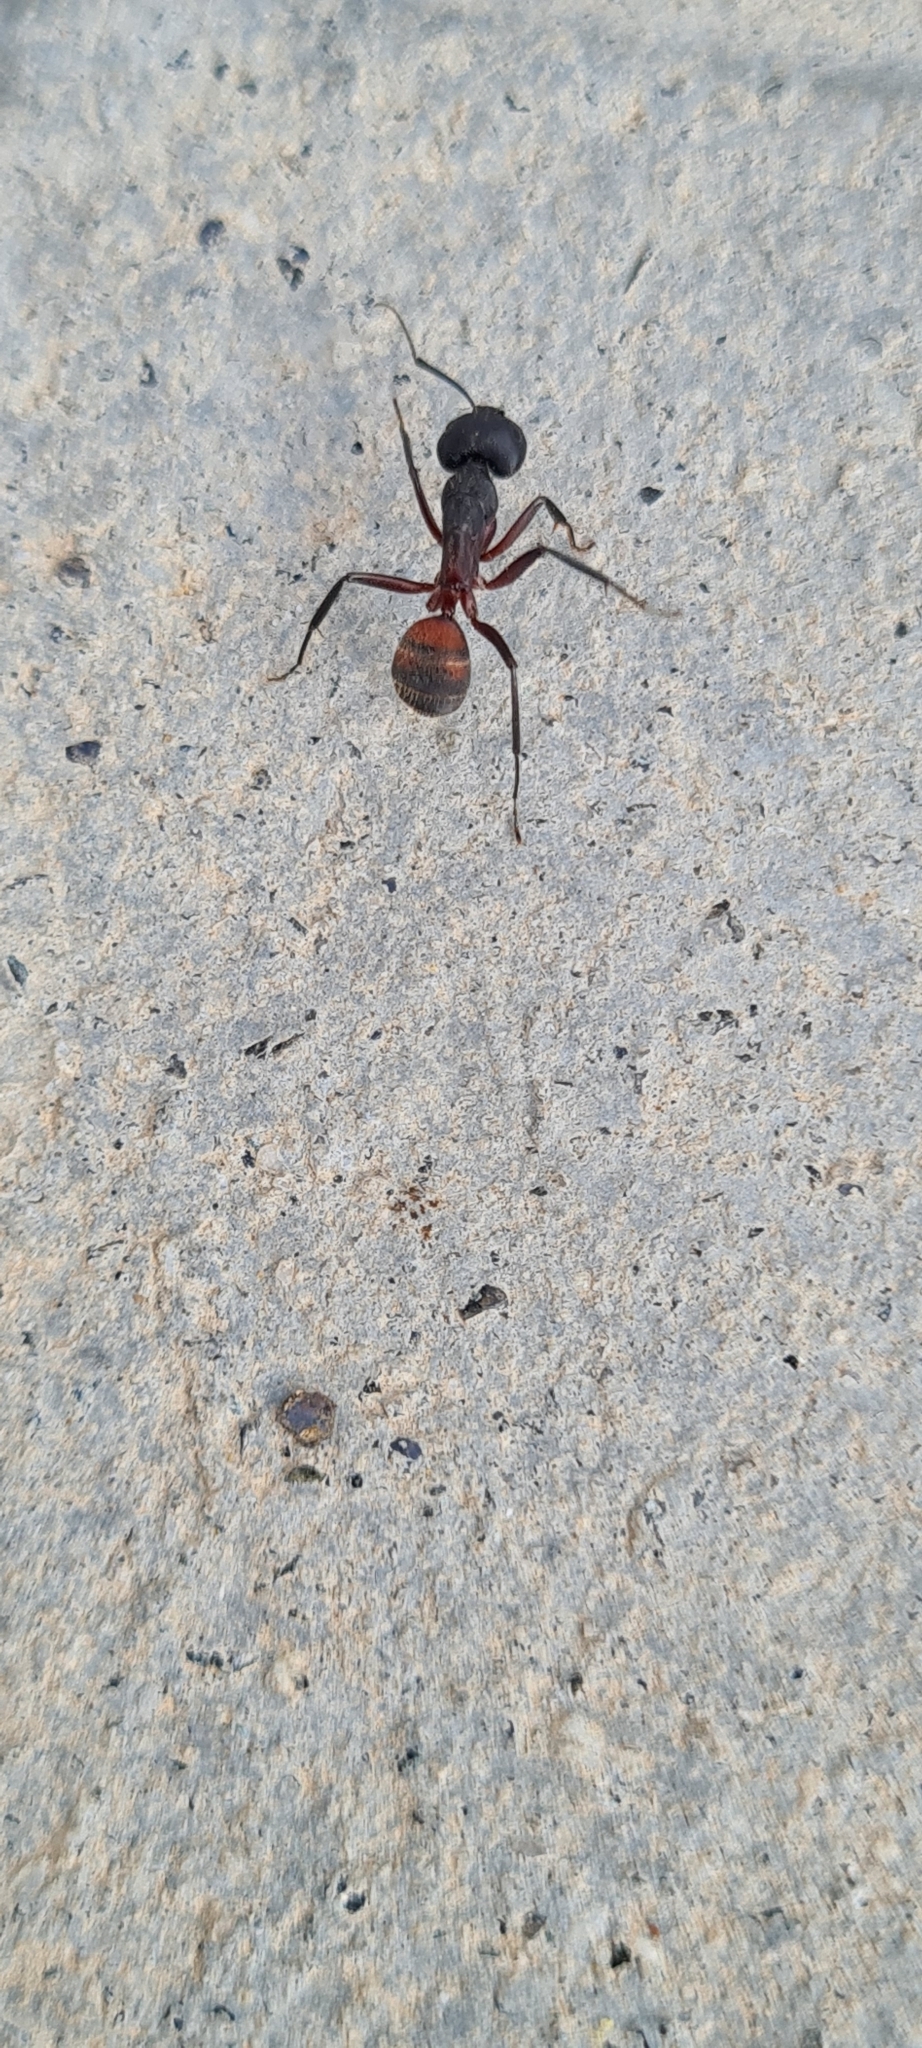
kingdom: Animalia
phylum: Arthropoda
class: Insecta
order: Hymenoptera
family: Formicidae
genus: Camponotus
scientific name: Camponotus cruentatus
